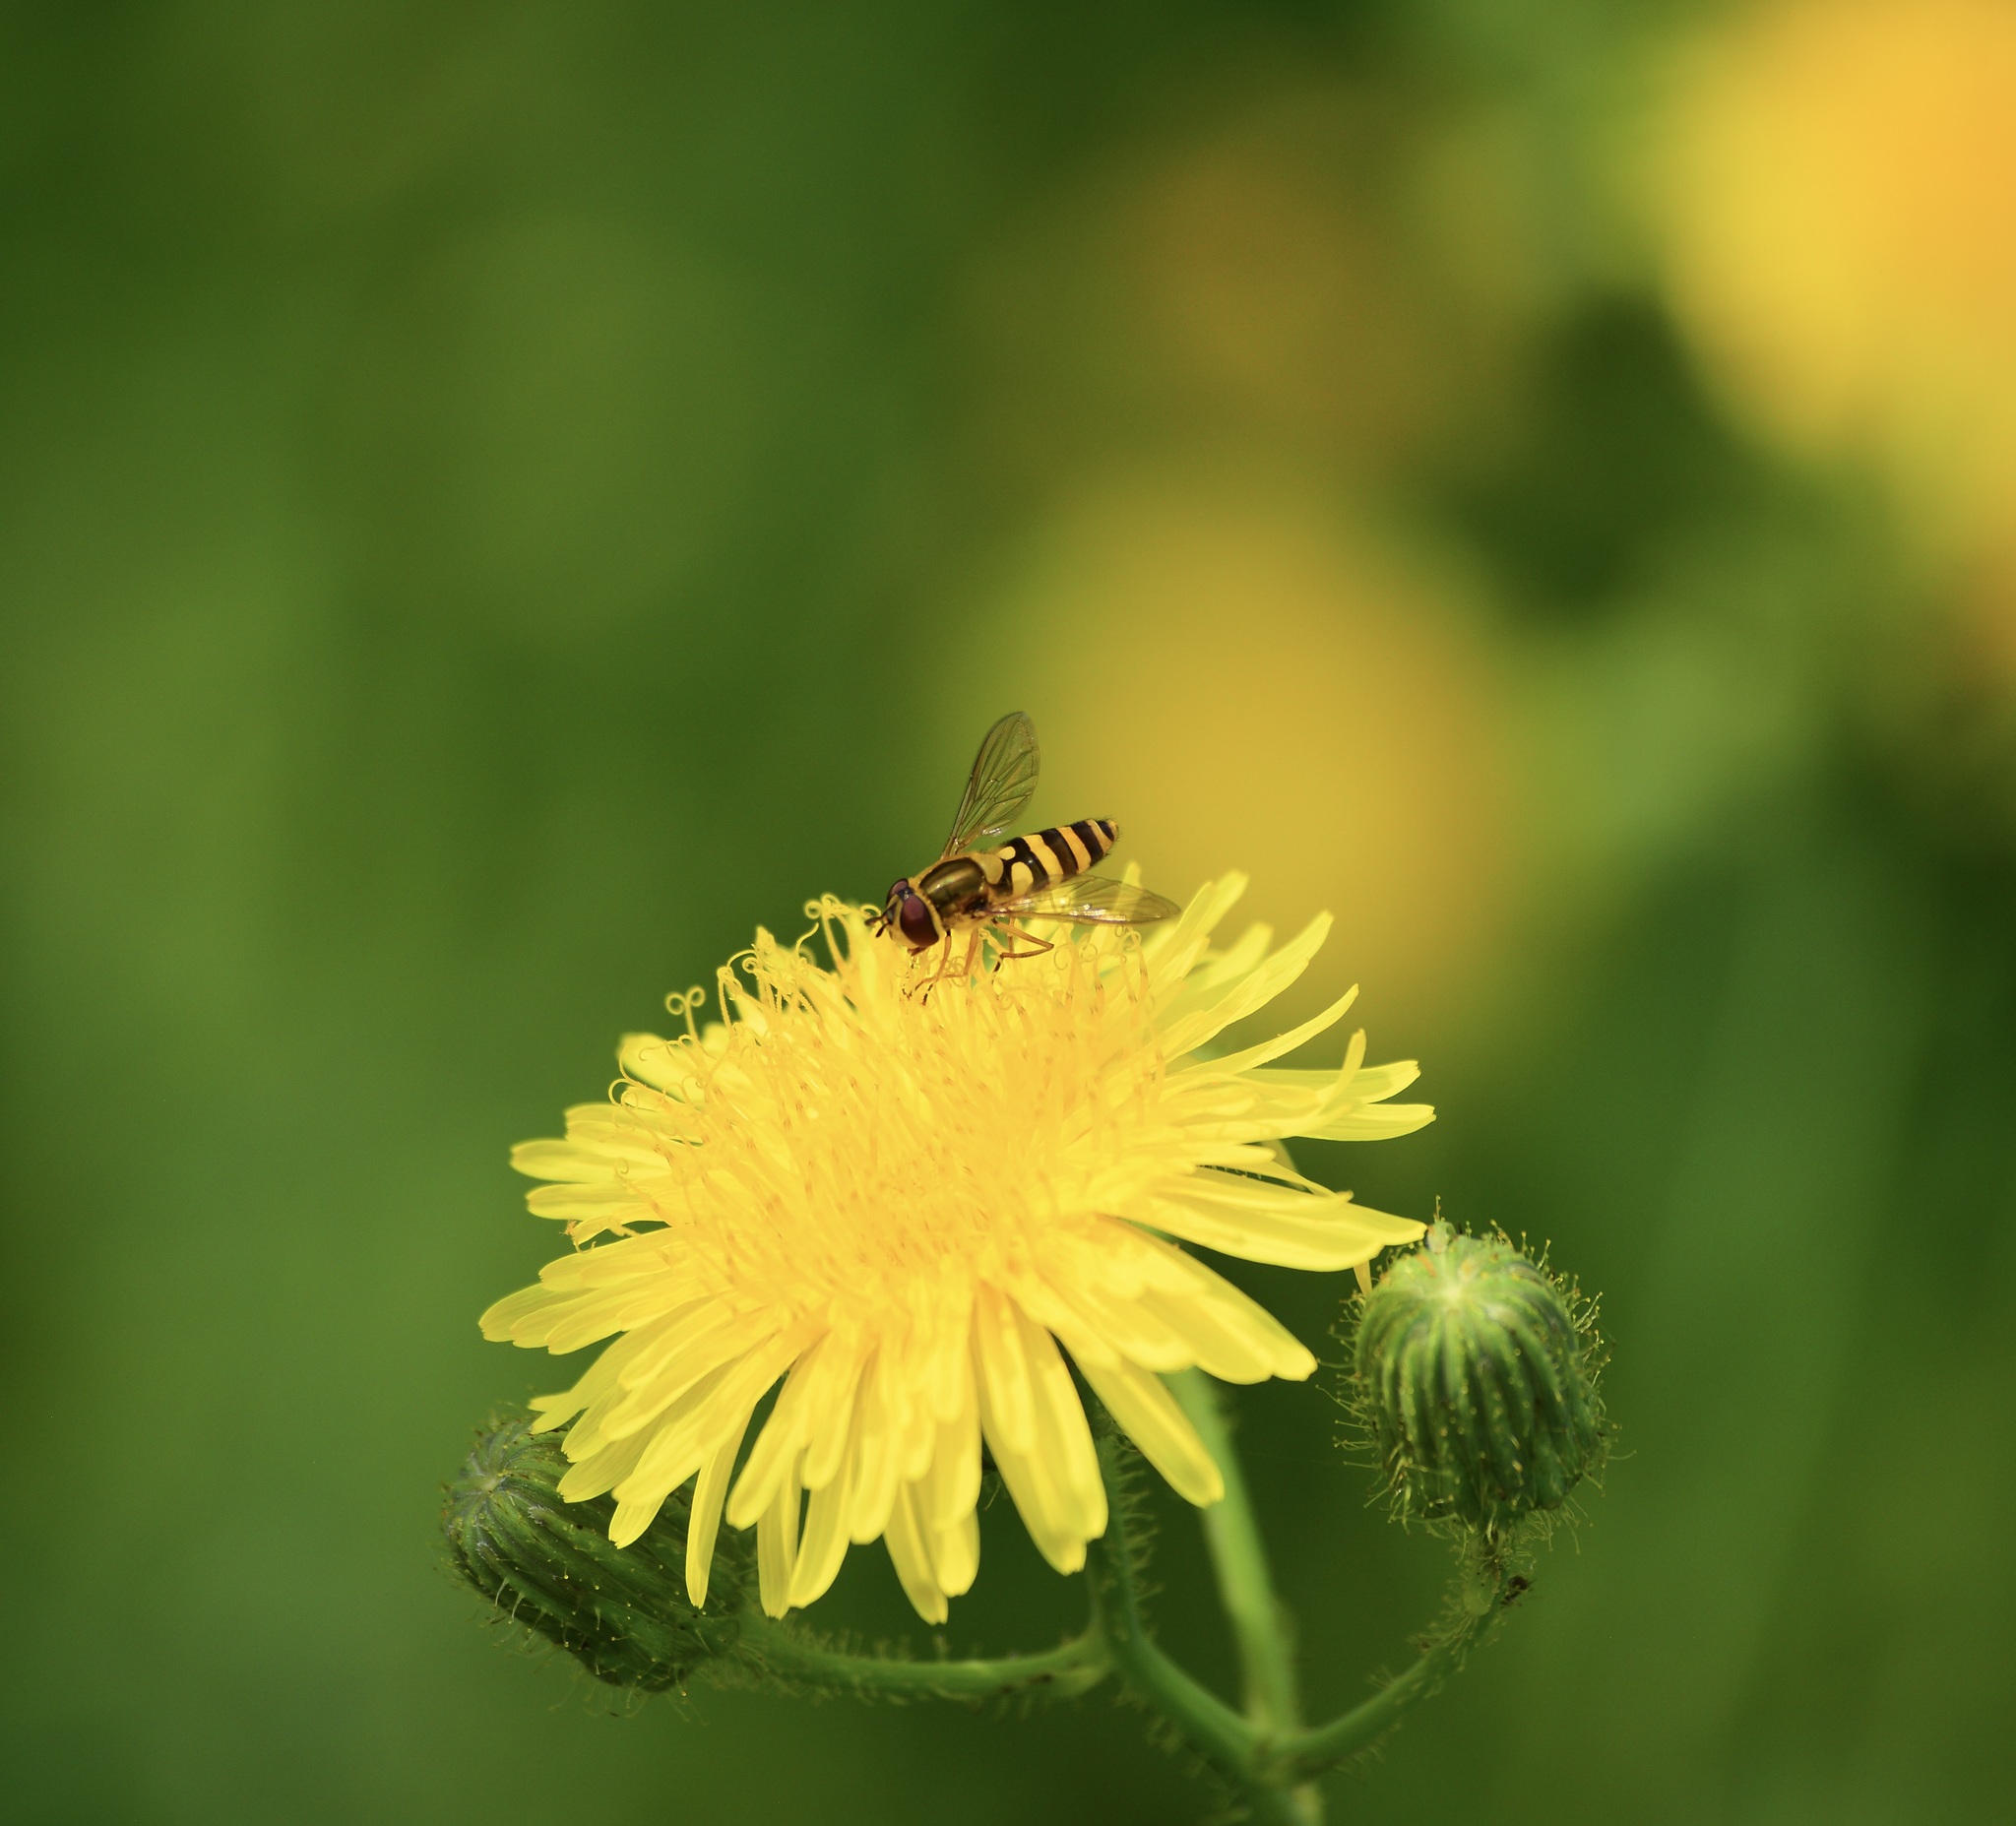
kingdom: Animalia
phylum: Arthropoda
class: Insecta
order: Diptera
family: Syrphidae
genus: Syrphus
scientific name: Syrphus ribesii
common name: Common flower fly
